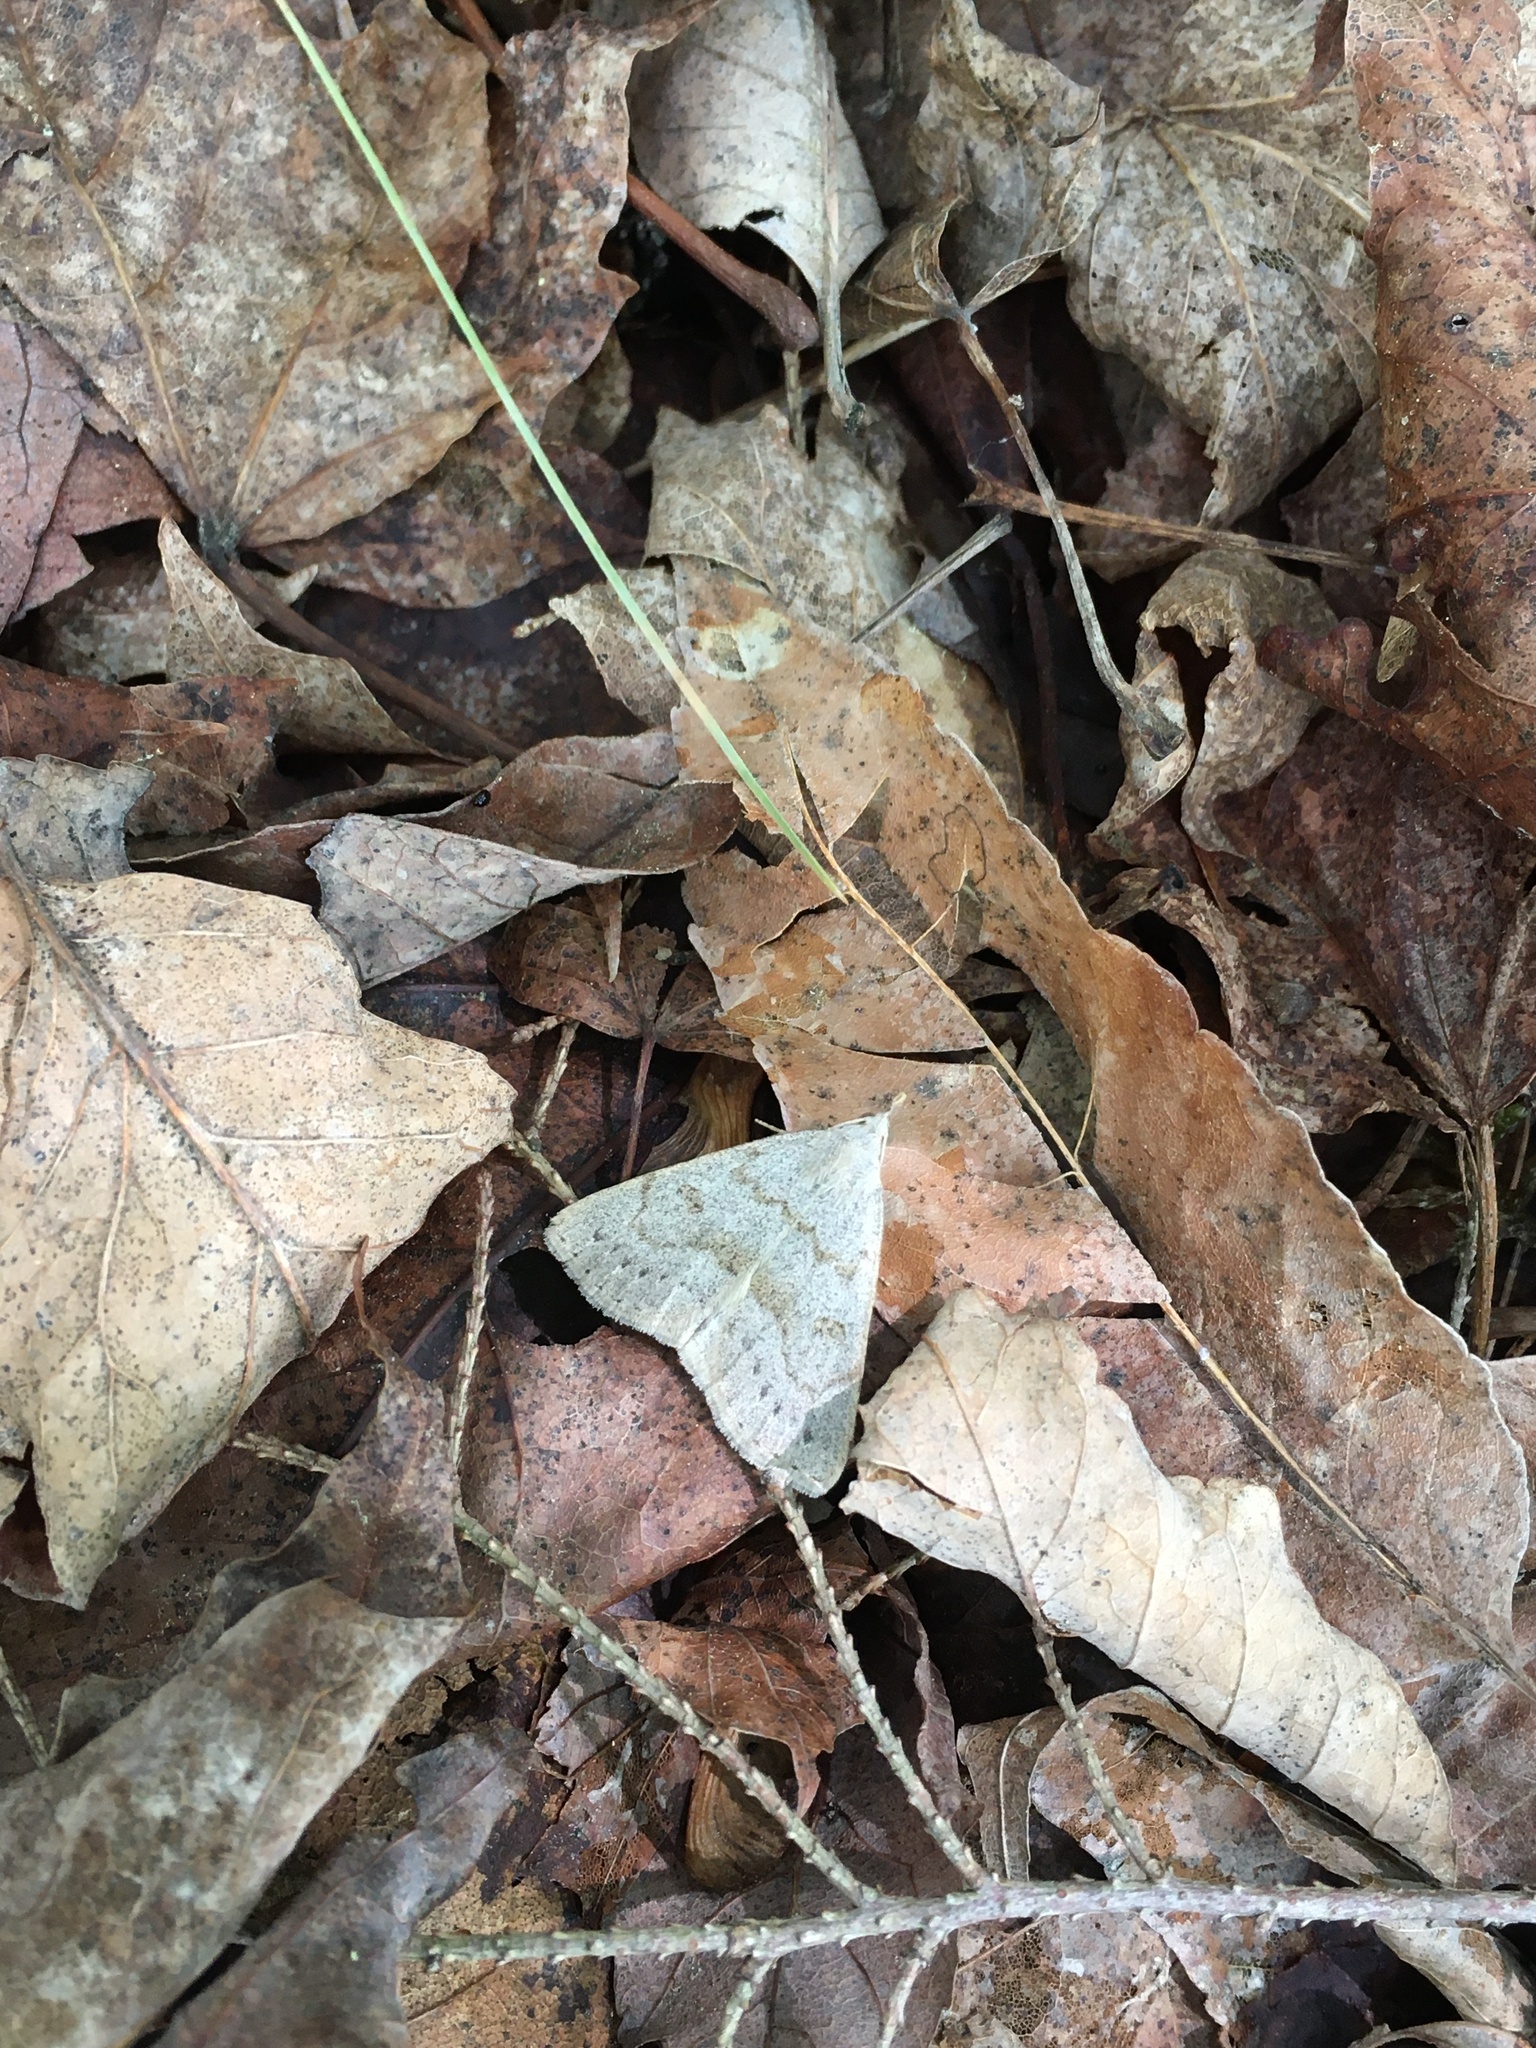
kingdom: Animalia
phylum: Arthropoda
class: Insecta
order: Lepidoptera
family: Erebidae
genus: Macrochilo
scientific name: Macrochilo morbidalis
